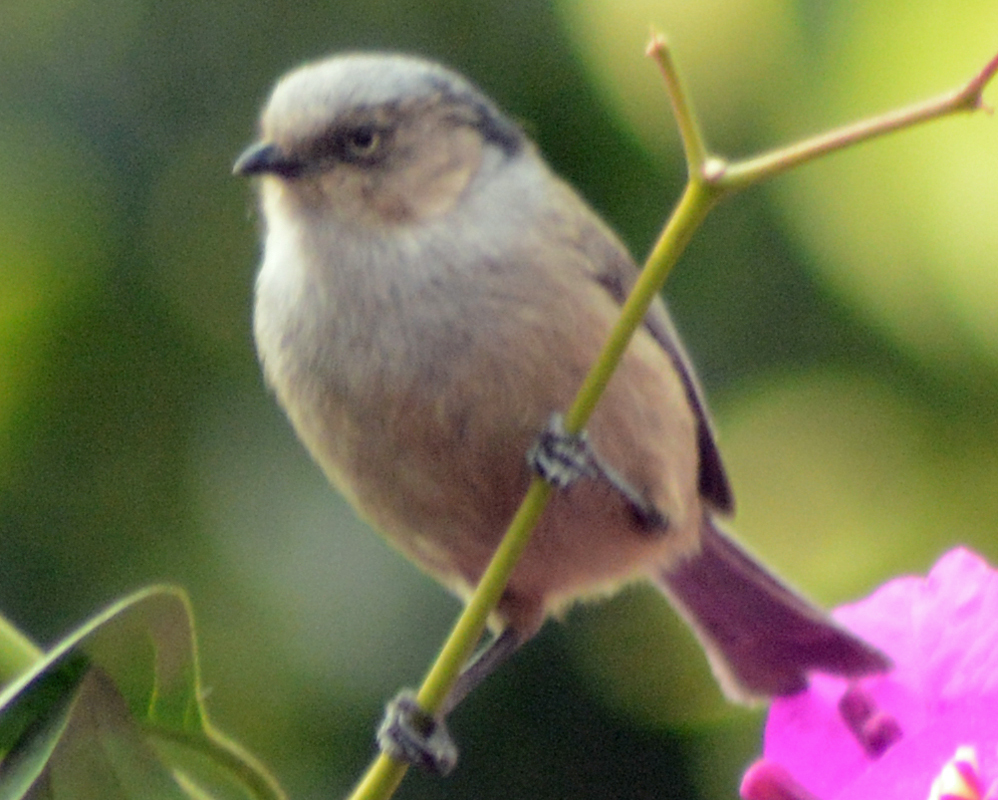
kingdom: Animalia
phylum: Chordata
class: Aves
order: Passeriformes
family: Aegithalidae
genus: Psaltriparus
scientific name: Psaltriparus minimus
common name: American bushtit
